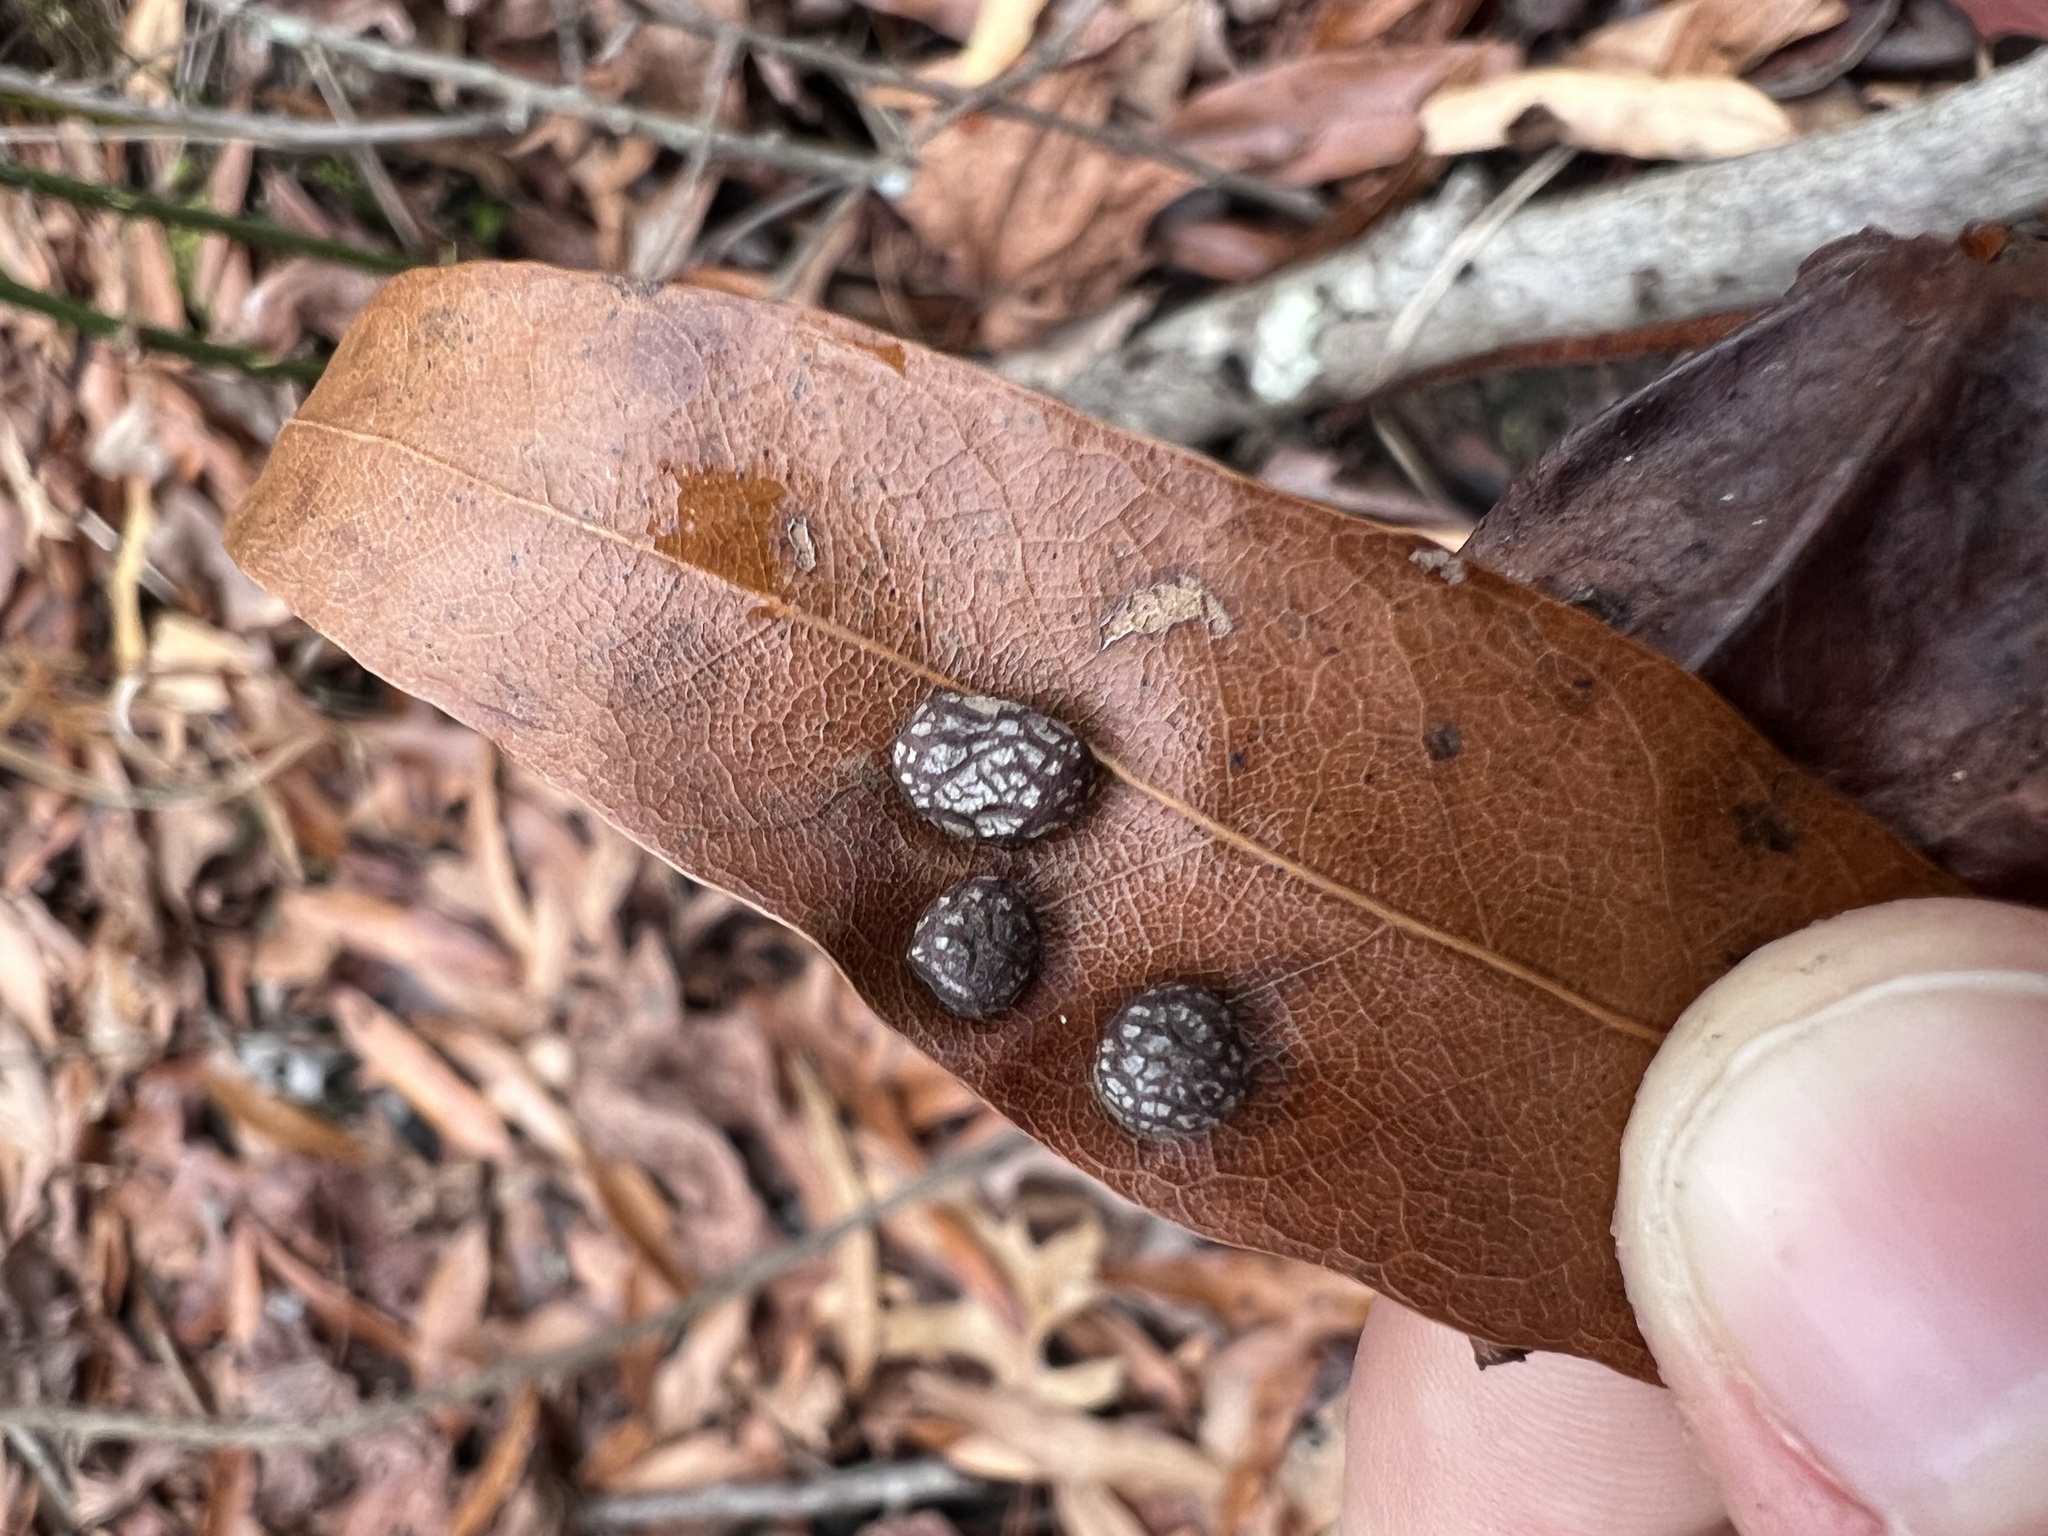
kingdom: Animalia
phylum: Arthropoda
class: Insecta
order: Diptera
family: Cecidomyiidae
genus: Polystepha
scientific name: Polystepha pilulae
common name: Oak leaf gall midge
